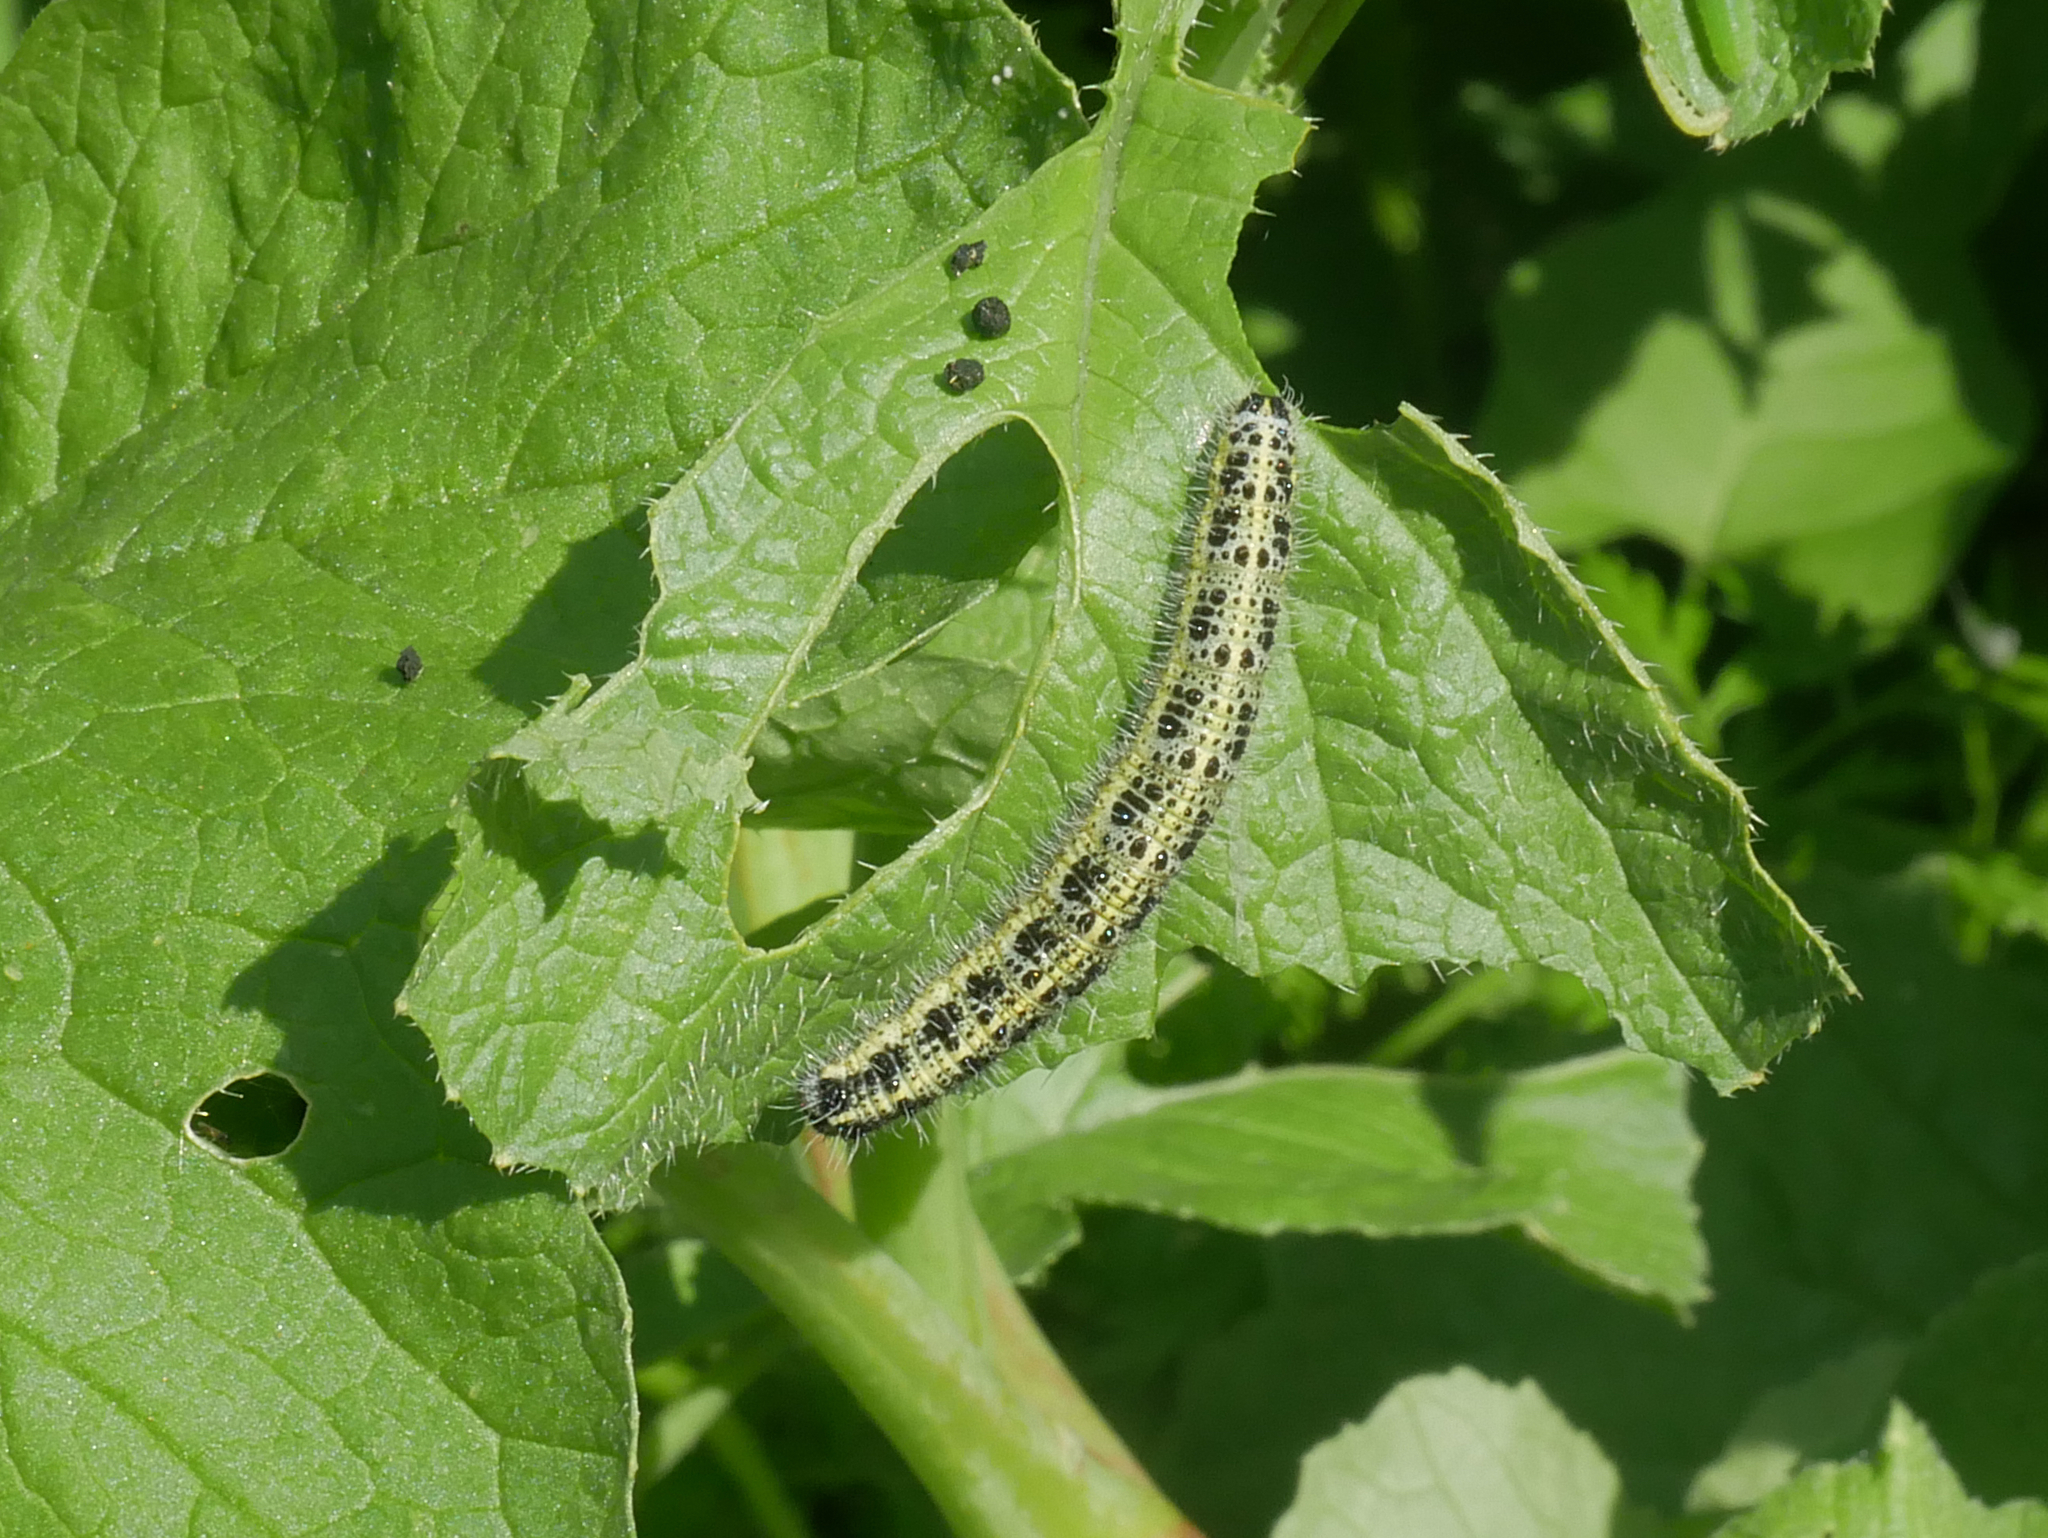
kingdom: Animalia
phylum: Arthropoda
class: Insecta
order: Lepidoptera
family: Pieridae
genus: Pieris
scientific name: Pieris brassicae
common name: Large white
